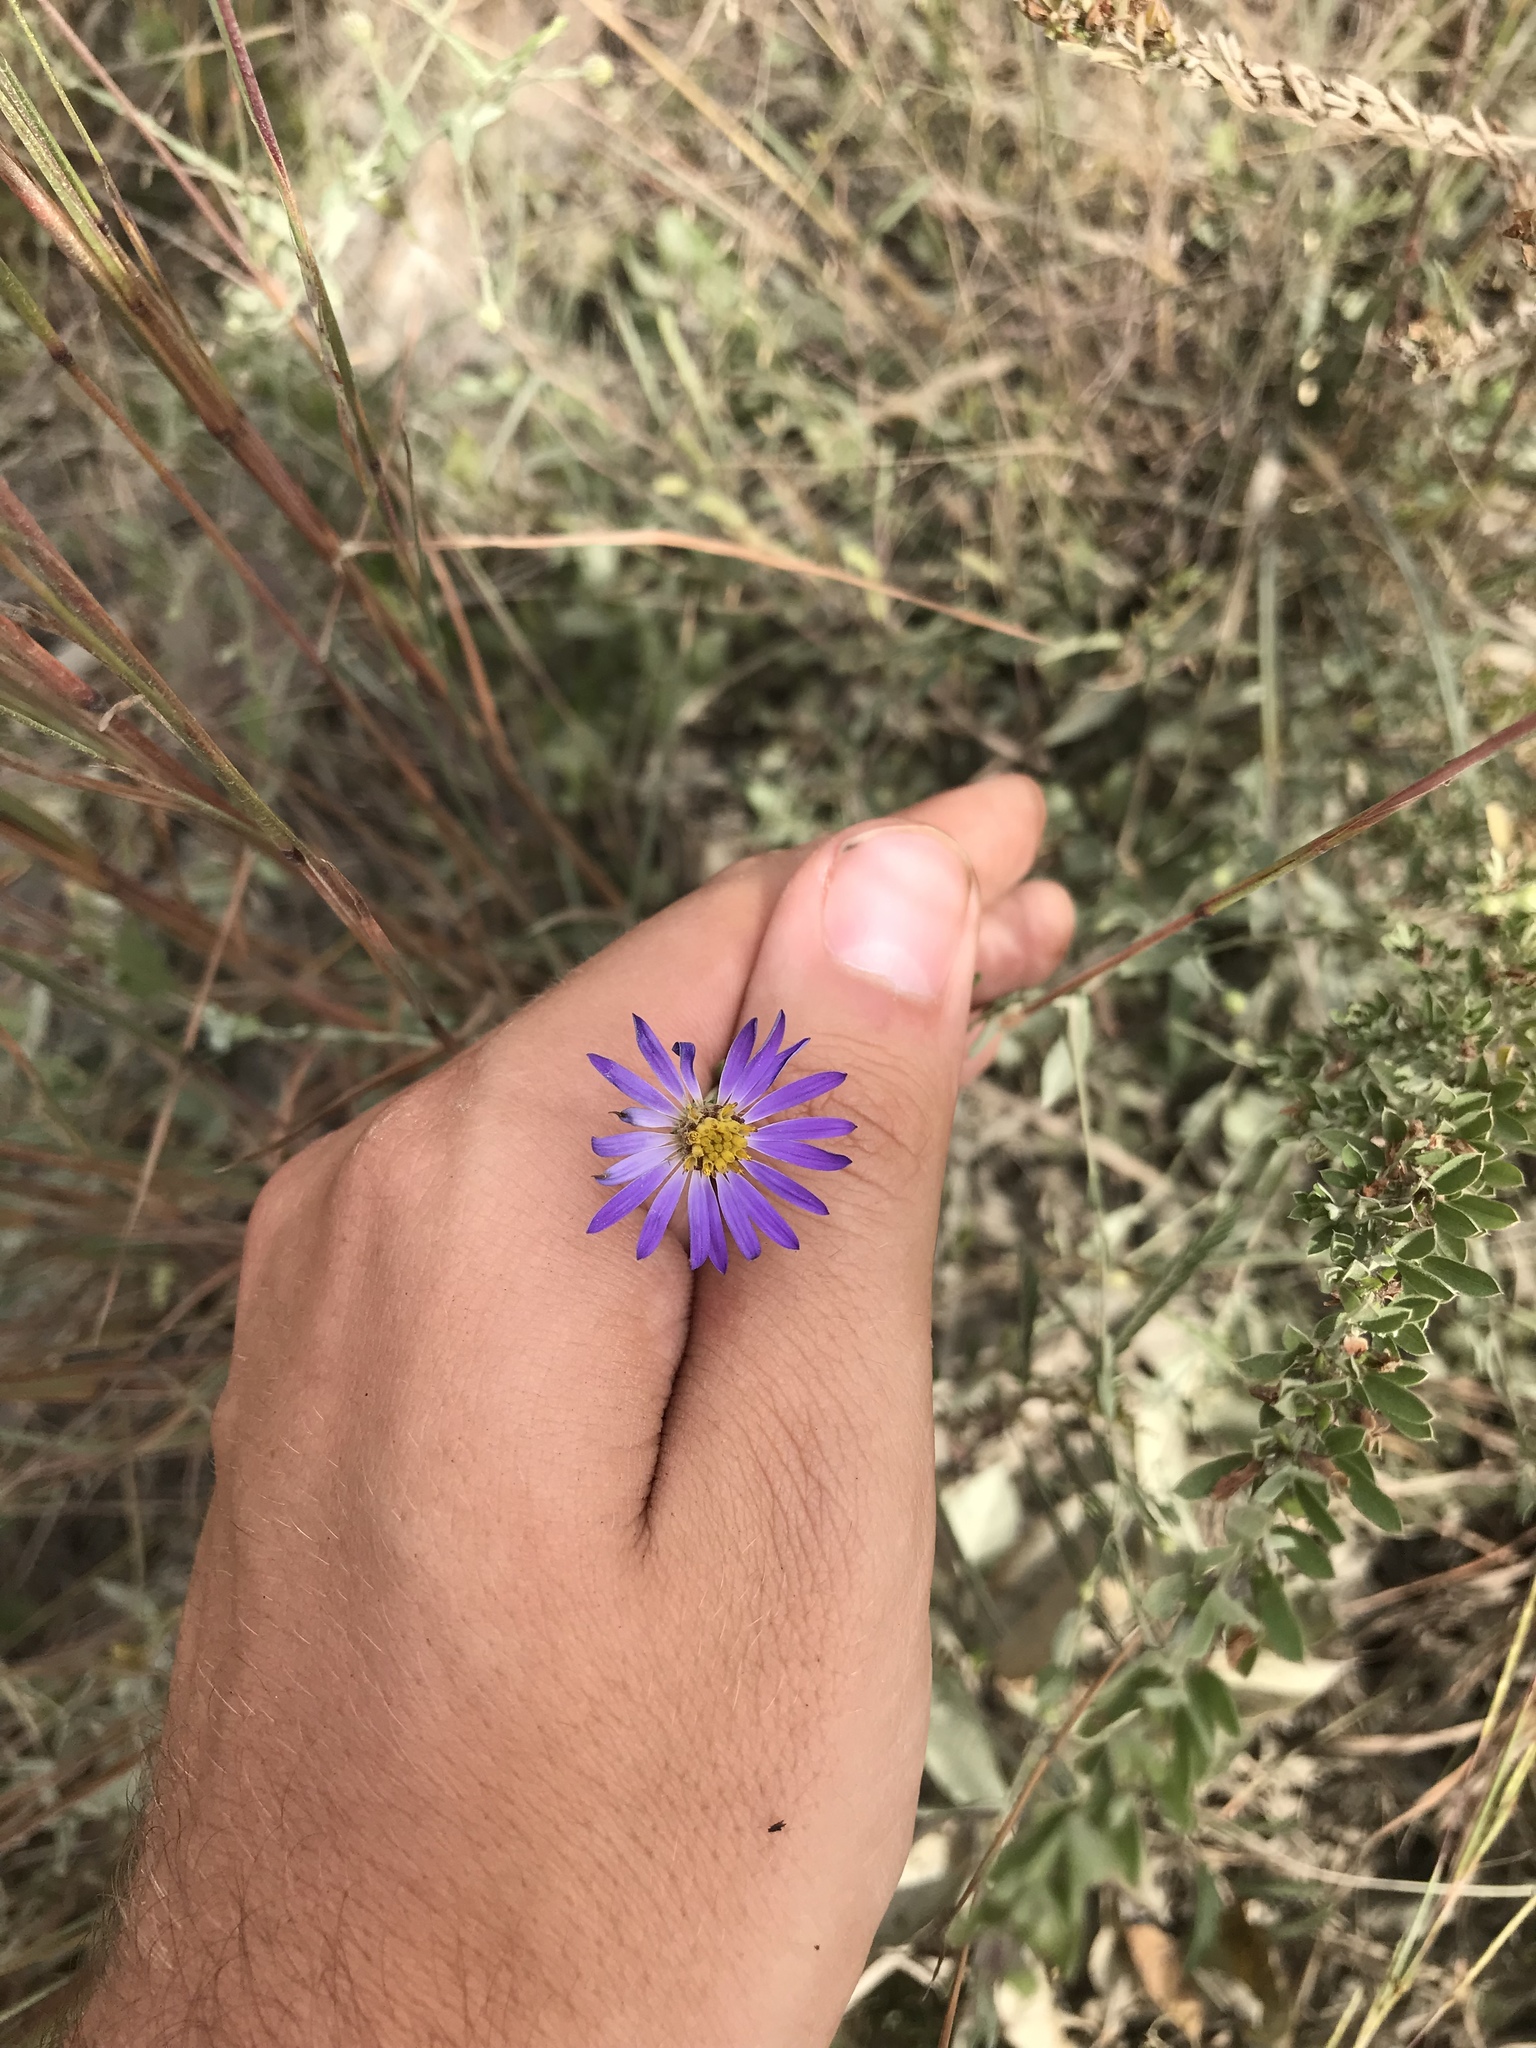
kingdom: Plantae
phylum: Tracheophyta
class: Magnoliopsida
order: Asterales
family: Asteraceae
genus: Symphyotrichum
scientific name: Symphyotrichum patens
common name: Late purple aster
